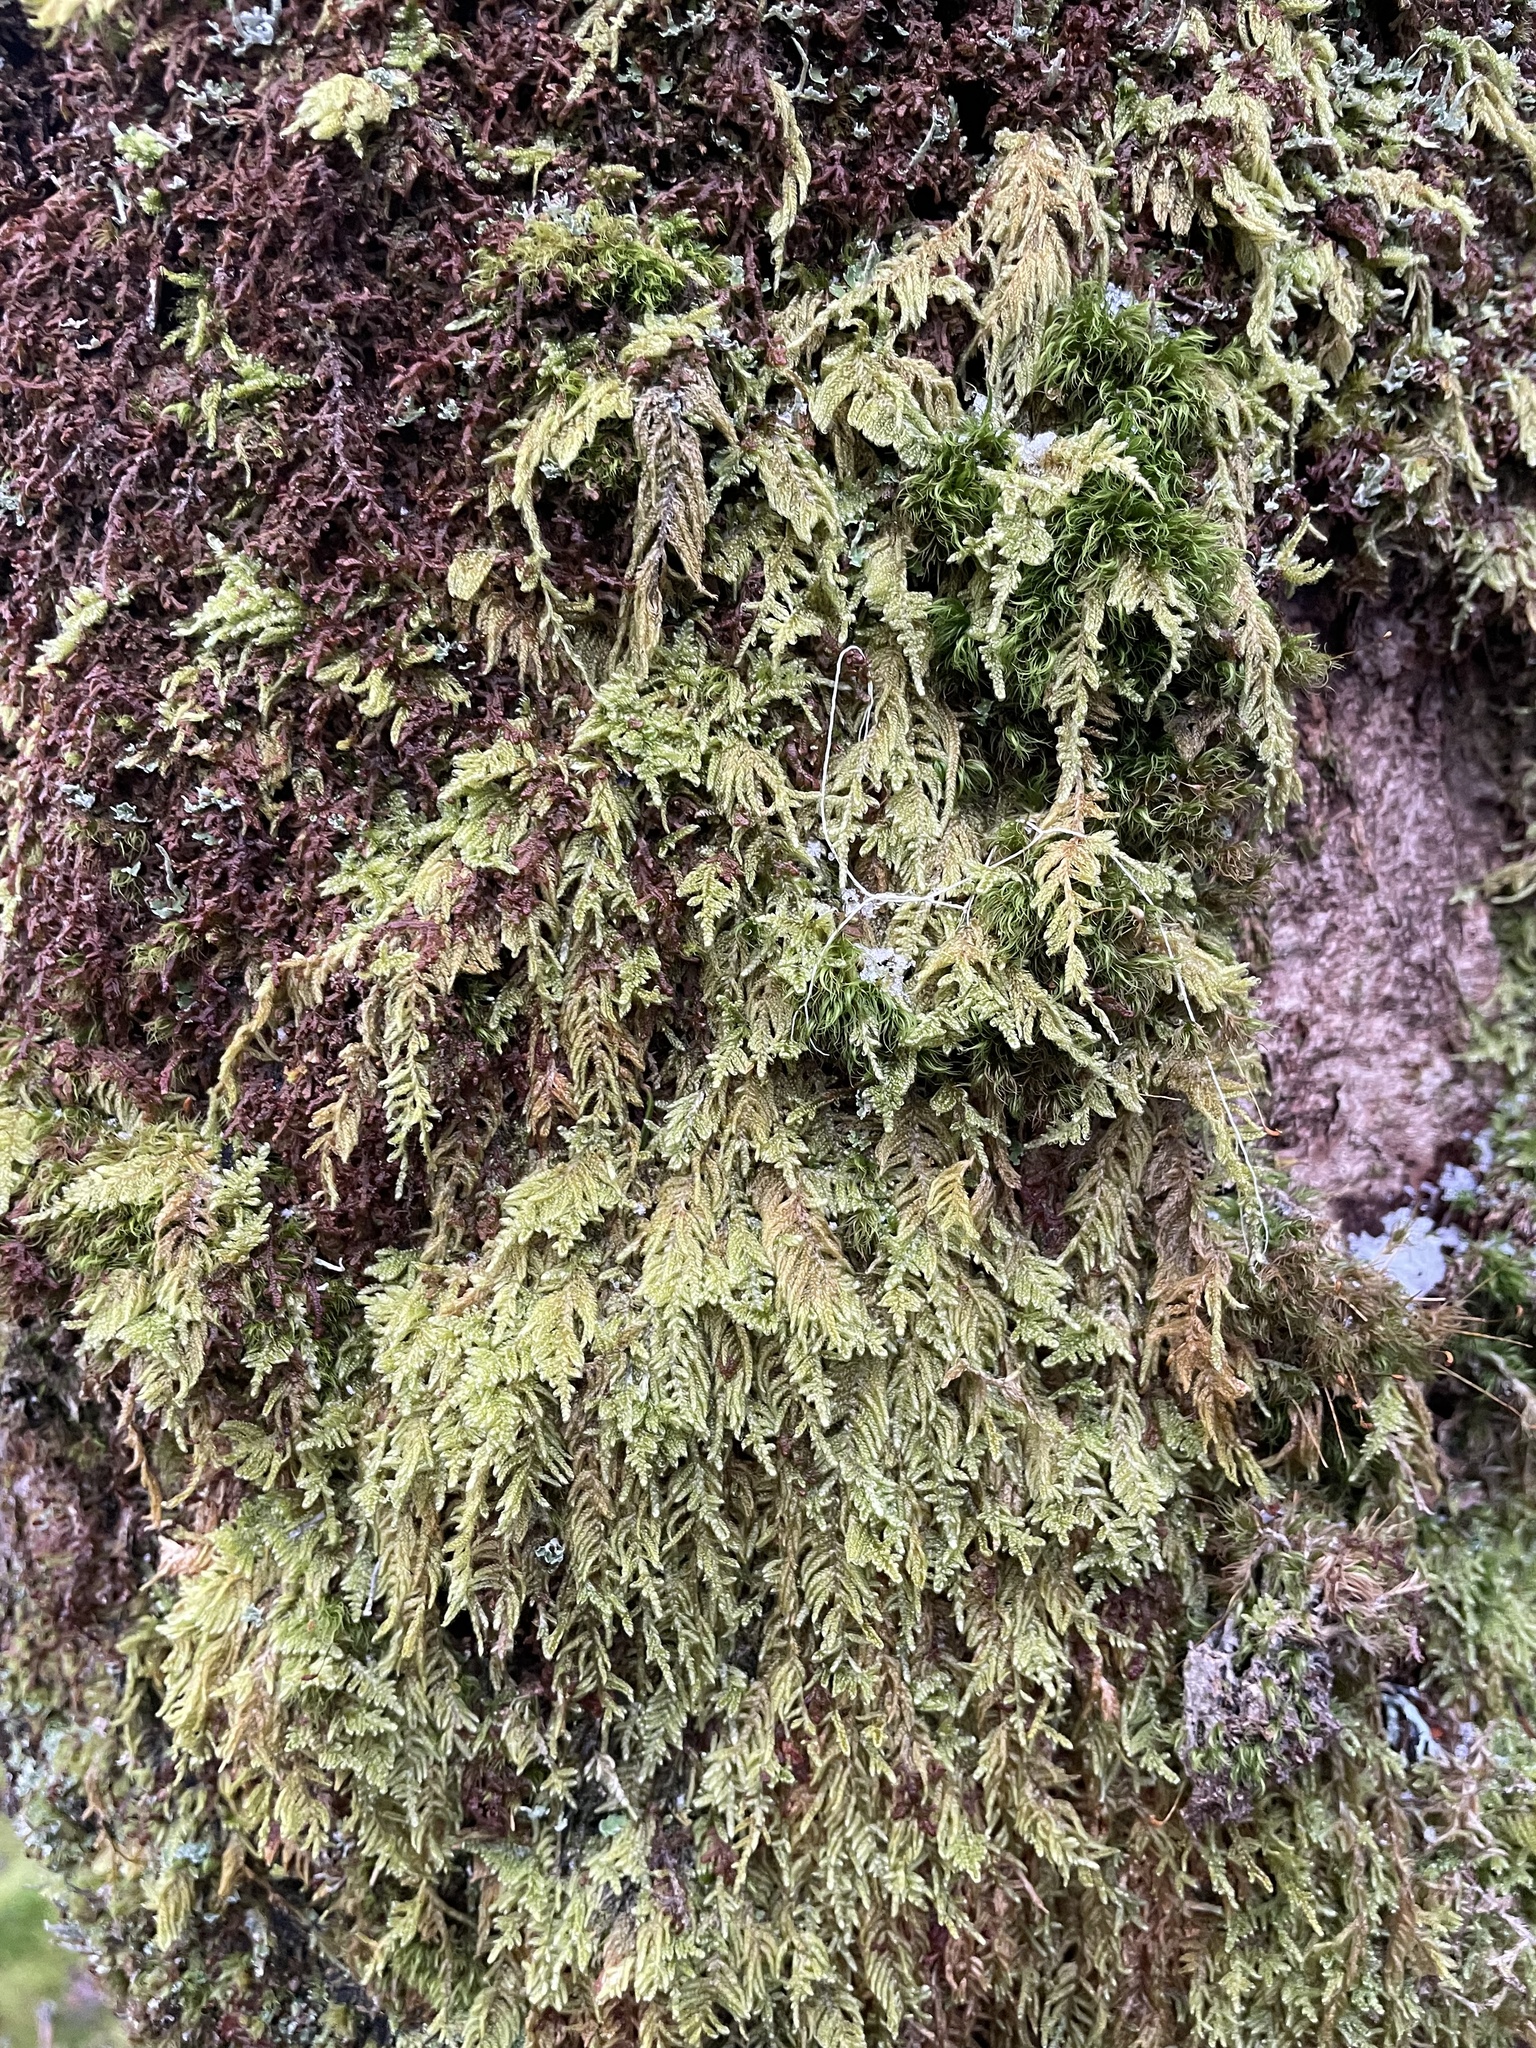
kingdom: Plantae
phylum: Bryophyta
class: Bryopsida
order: Hypnales
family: Callicladiaceae
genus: Callicladium
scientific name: Callicladium imponens
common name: Brocade moss
